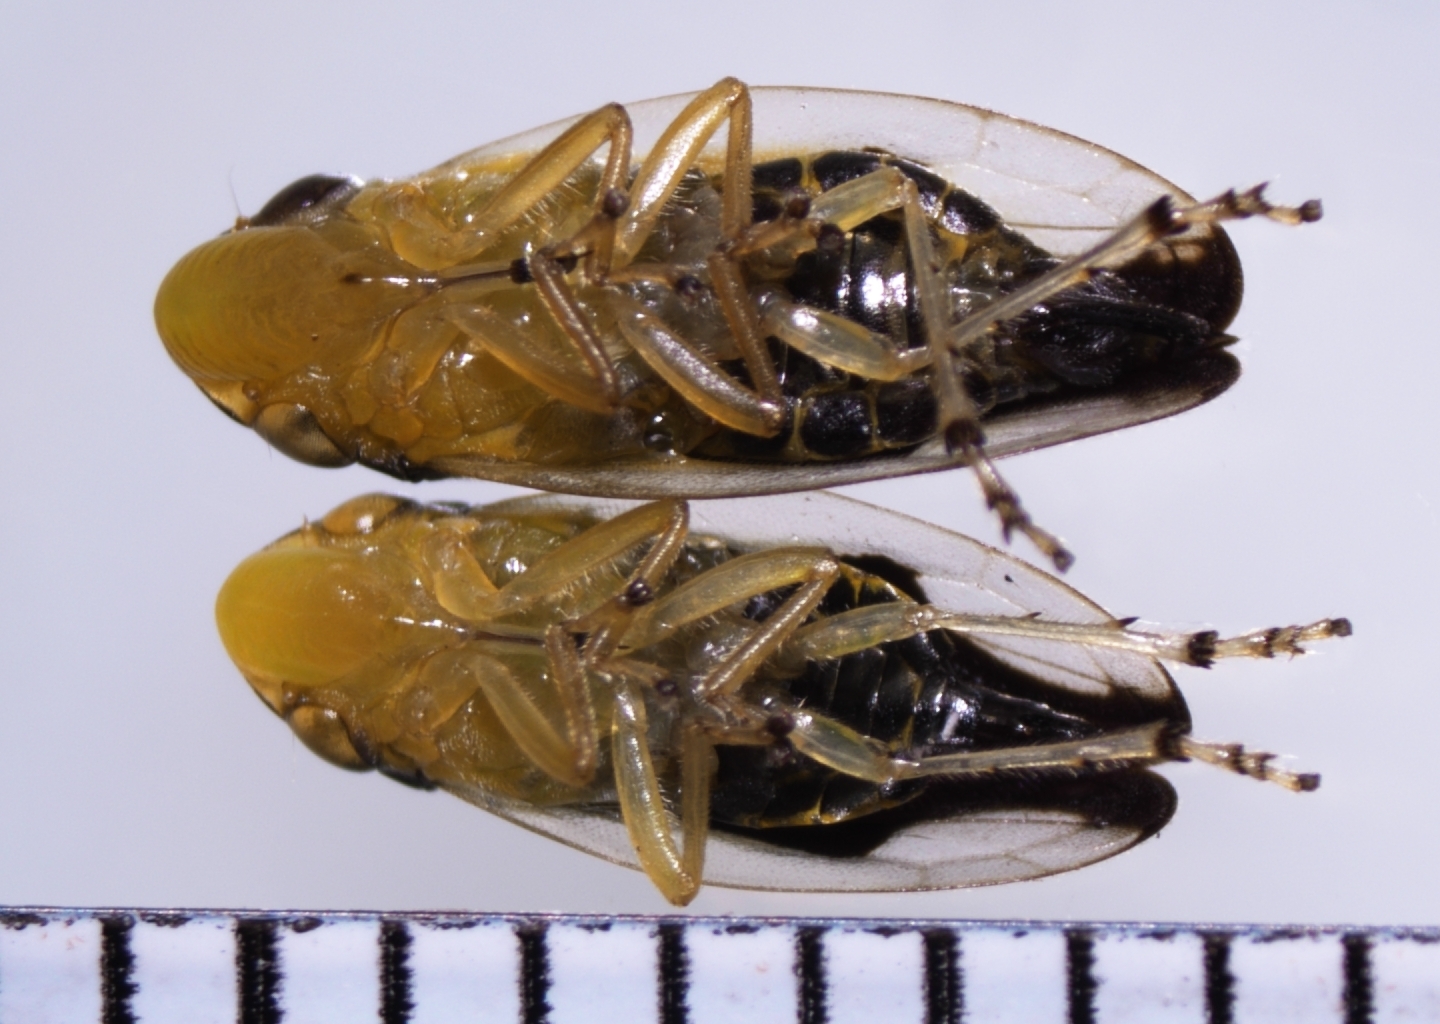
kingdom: Animalia
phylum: Arthropoda
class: Insecta
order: Hemiptera
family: Aphrophoridae
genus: Lallemandana
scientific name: Lallemandana rarotongae
